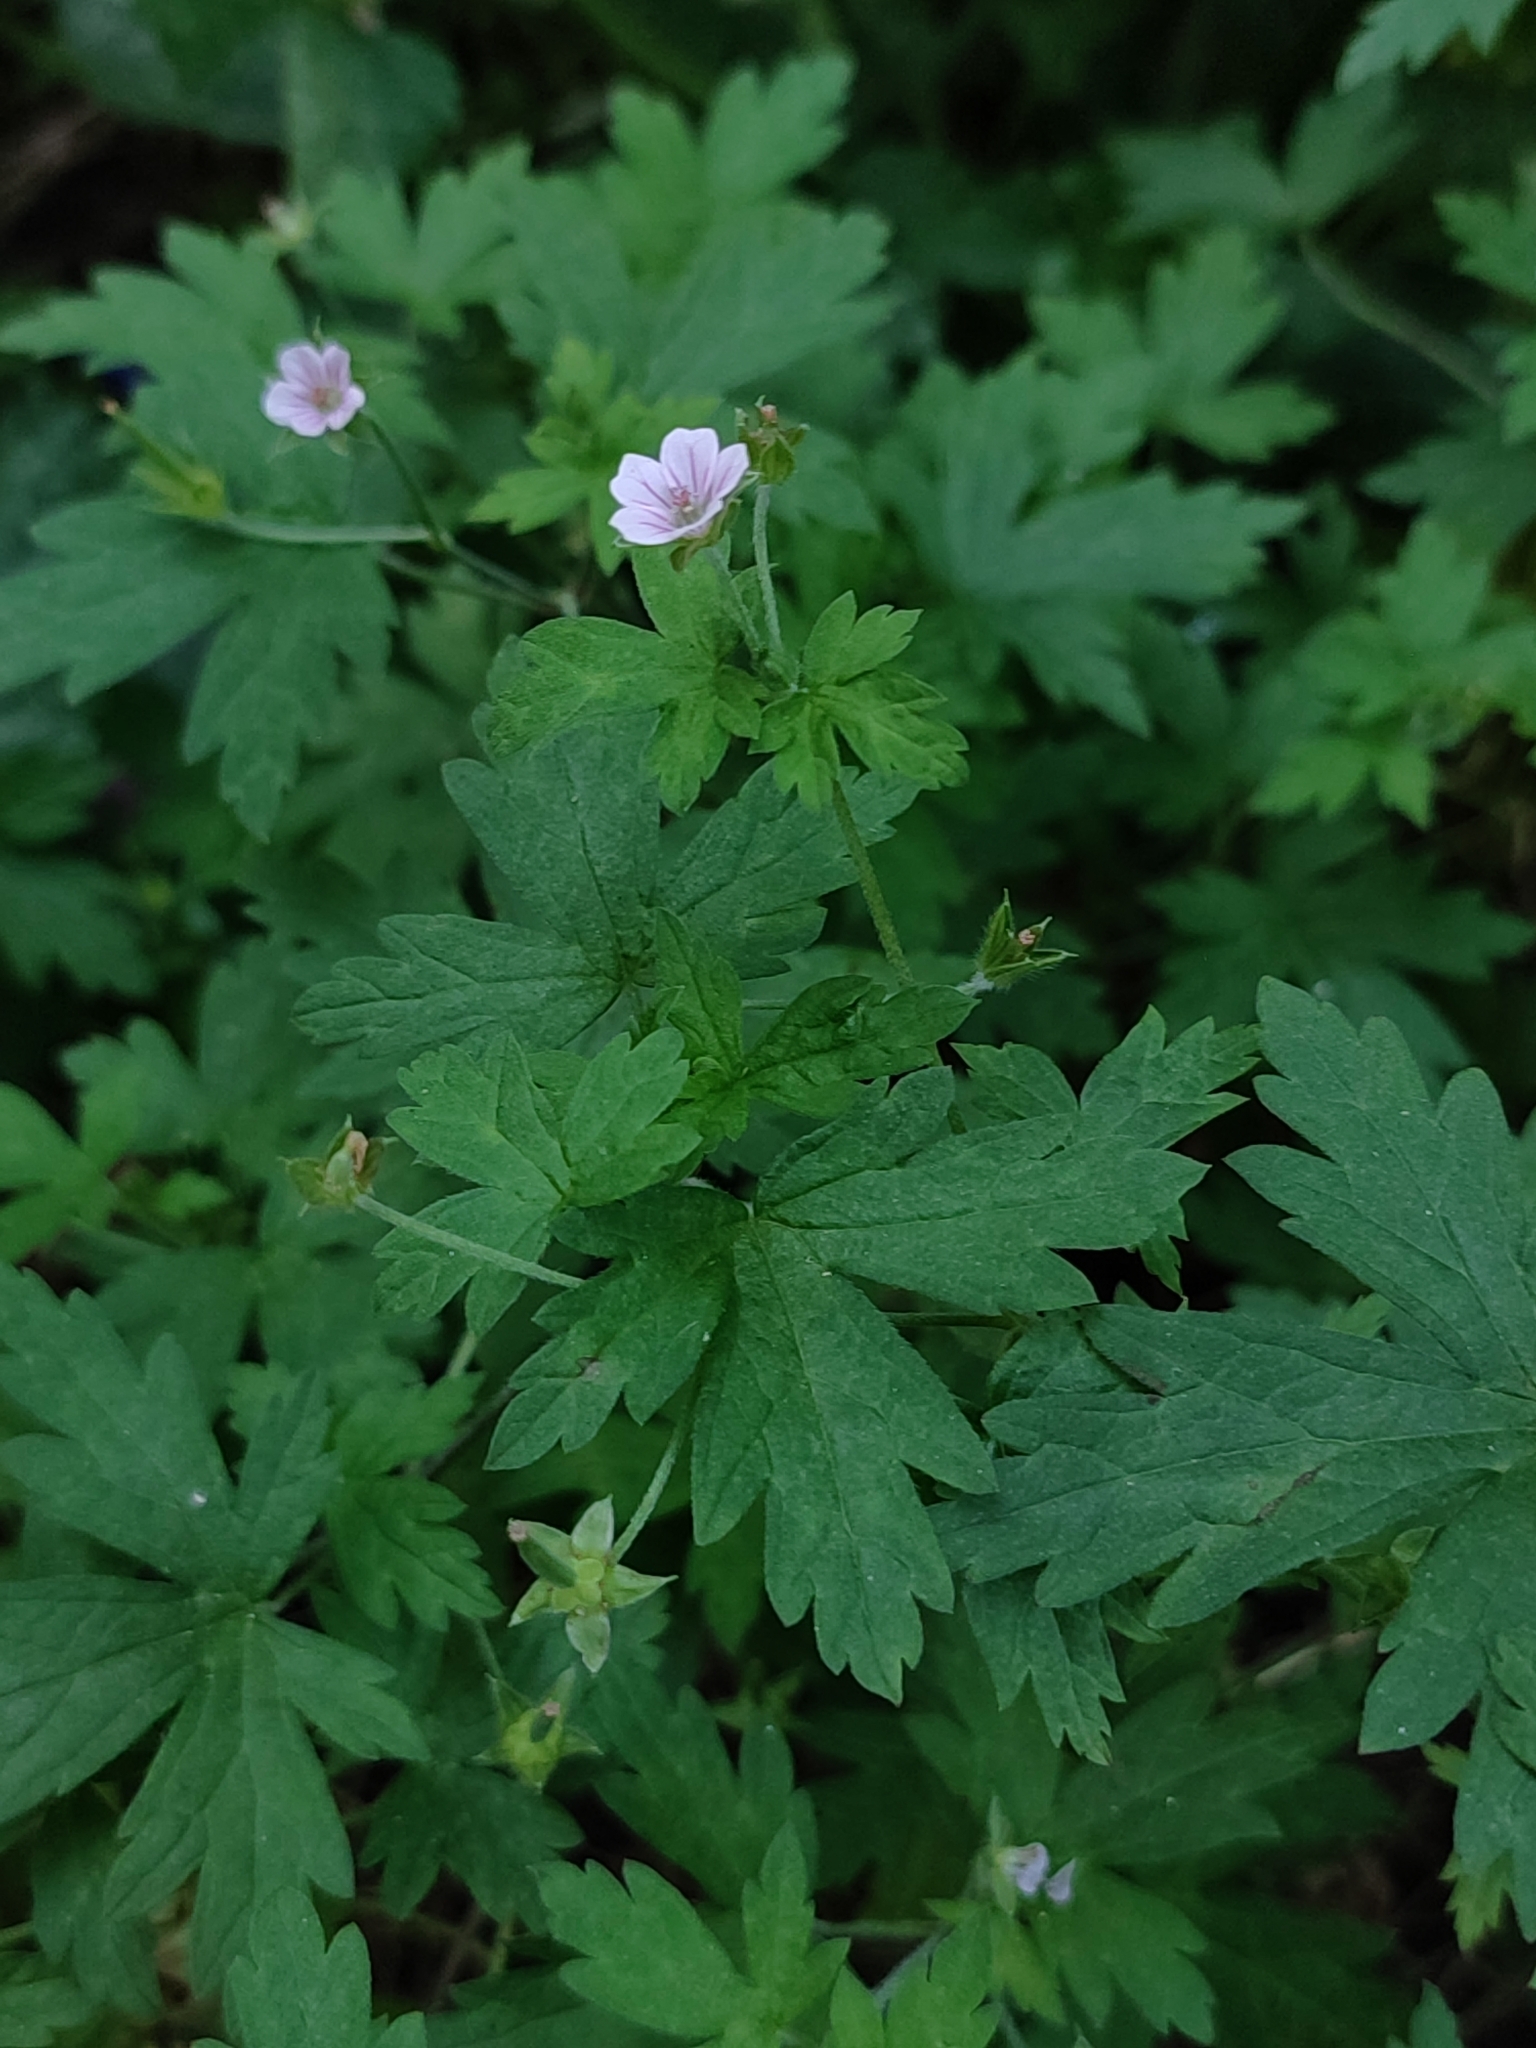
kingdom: Plantae
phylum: Tracheophyta
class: Magnoliopsida
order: Geraniales
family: Geraniaceae
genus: Geranium
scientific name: Geranium sibiricum
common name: Siberian crane's-bill
